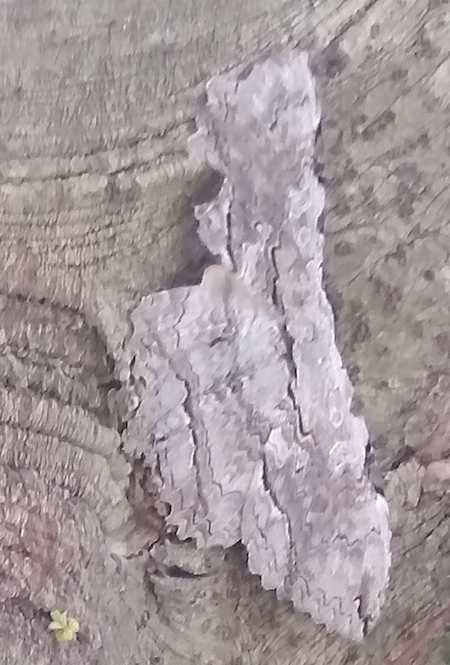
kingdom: Animalia
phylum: Arthropoda
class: Insecta
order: Lepidoptera
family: Erebidae
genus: Thysania
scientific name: Thysania zenobia
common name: Owl moth
